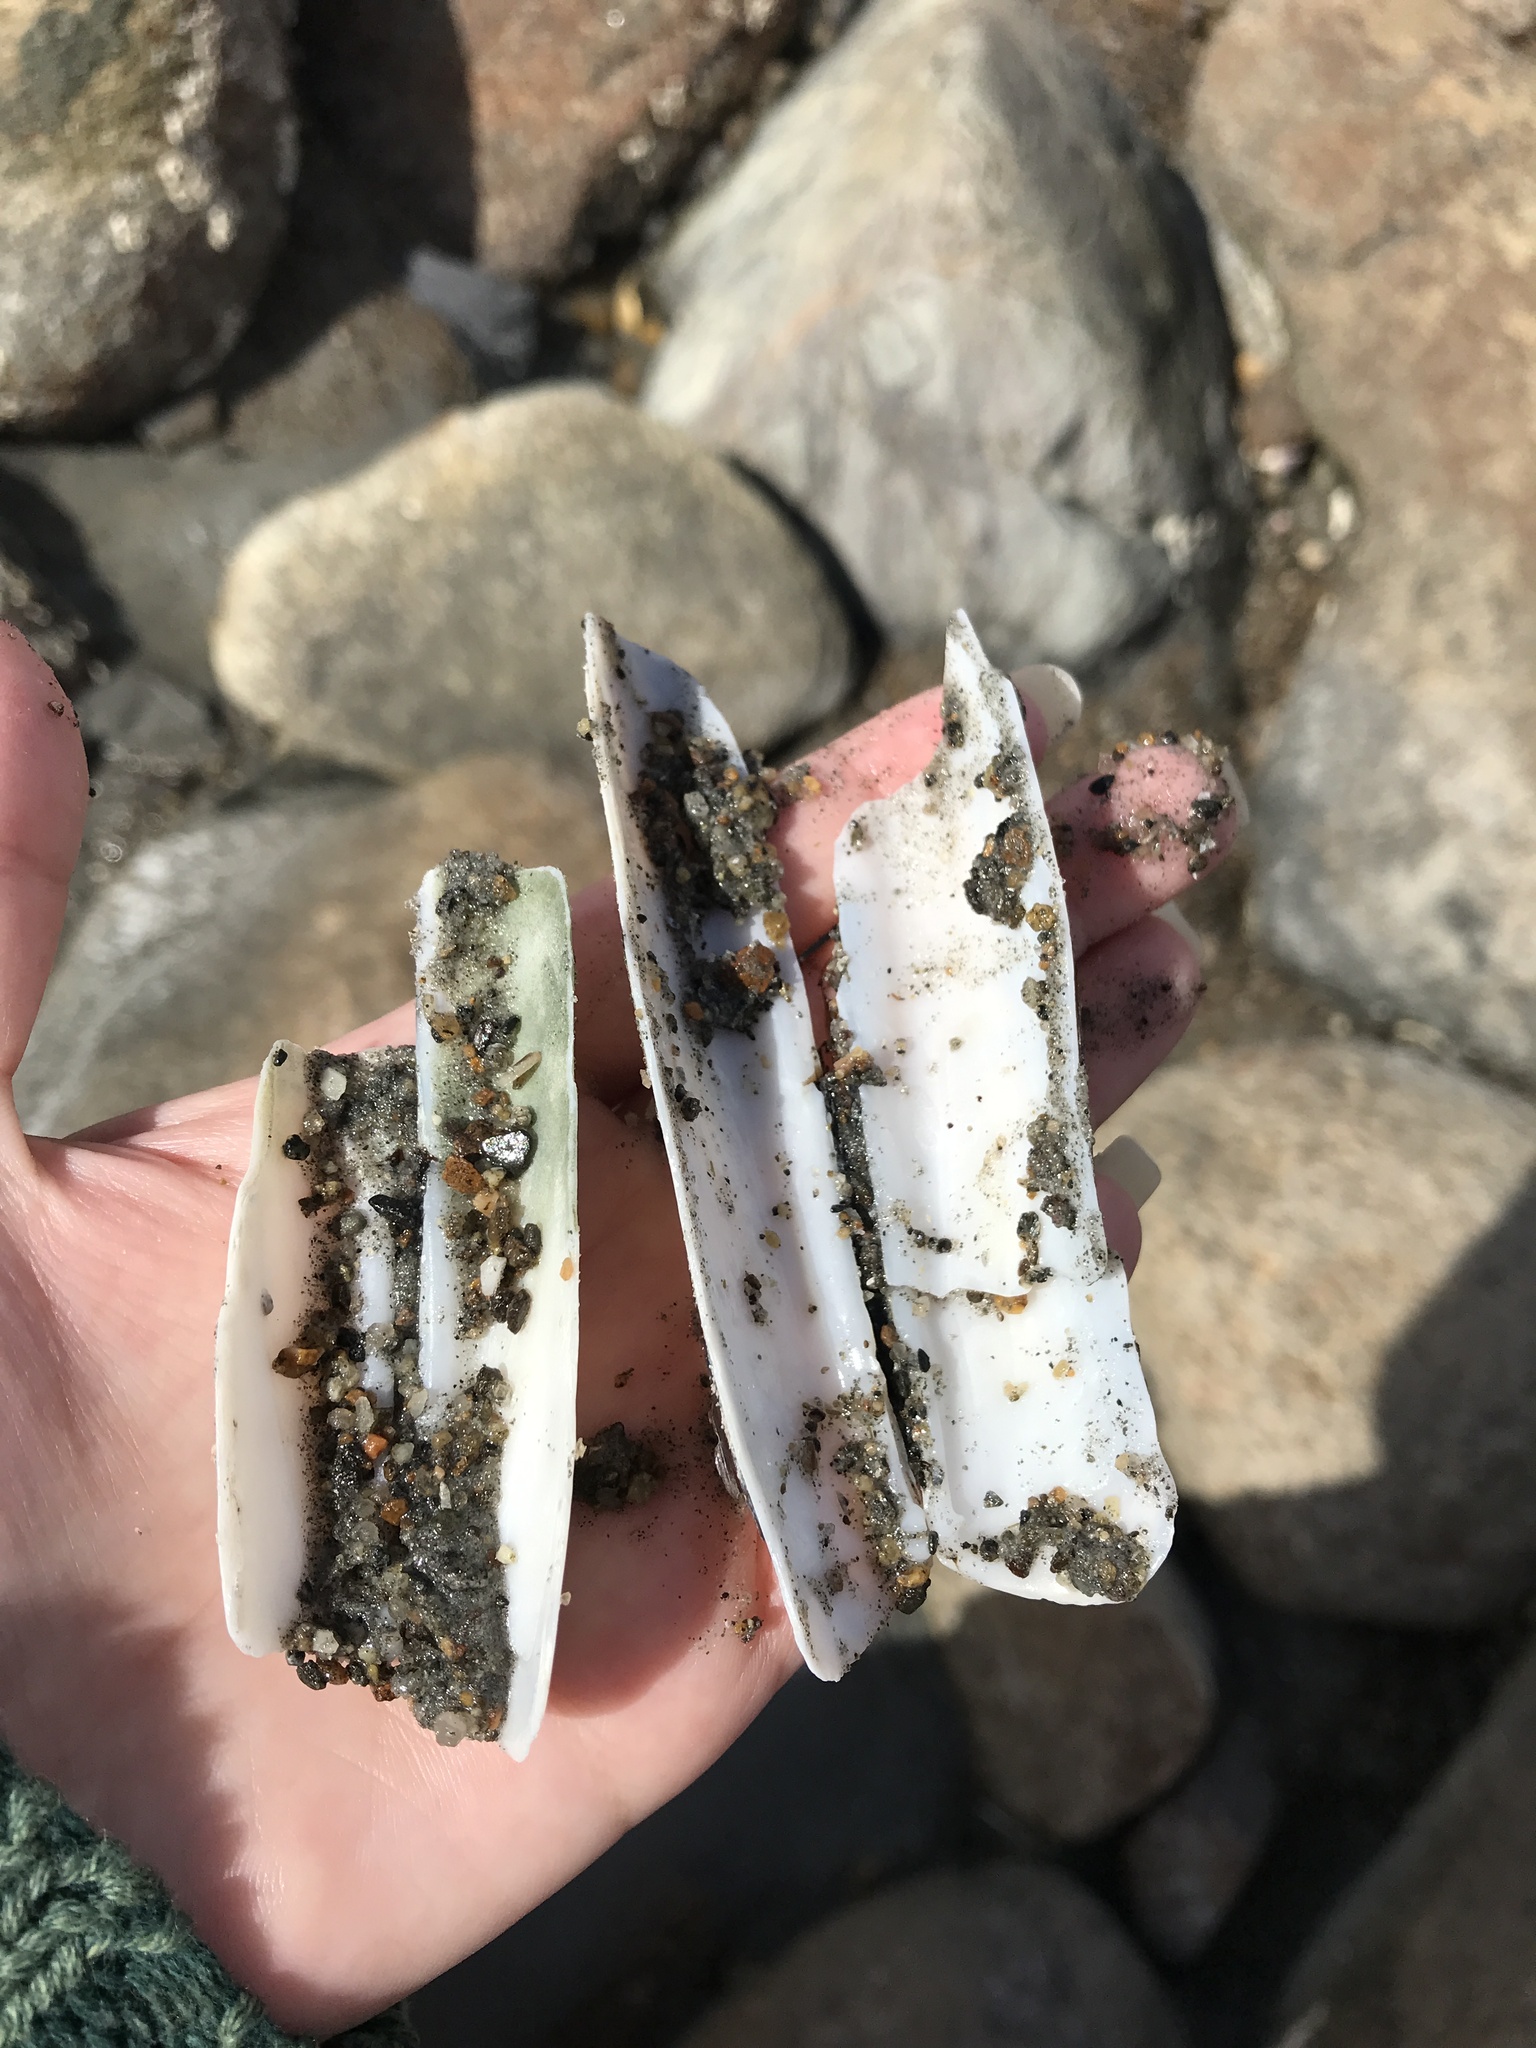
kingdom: Animalia
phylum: Mollusca
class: Bivalvia
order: Adapedonta
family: Pharidae
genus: Ensis
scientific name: Ensis leei
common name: American jack knife clam
